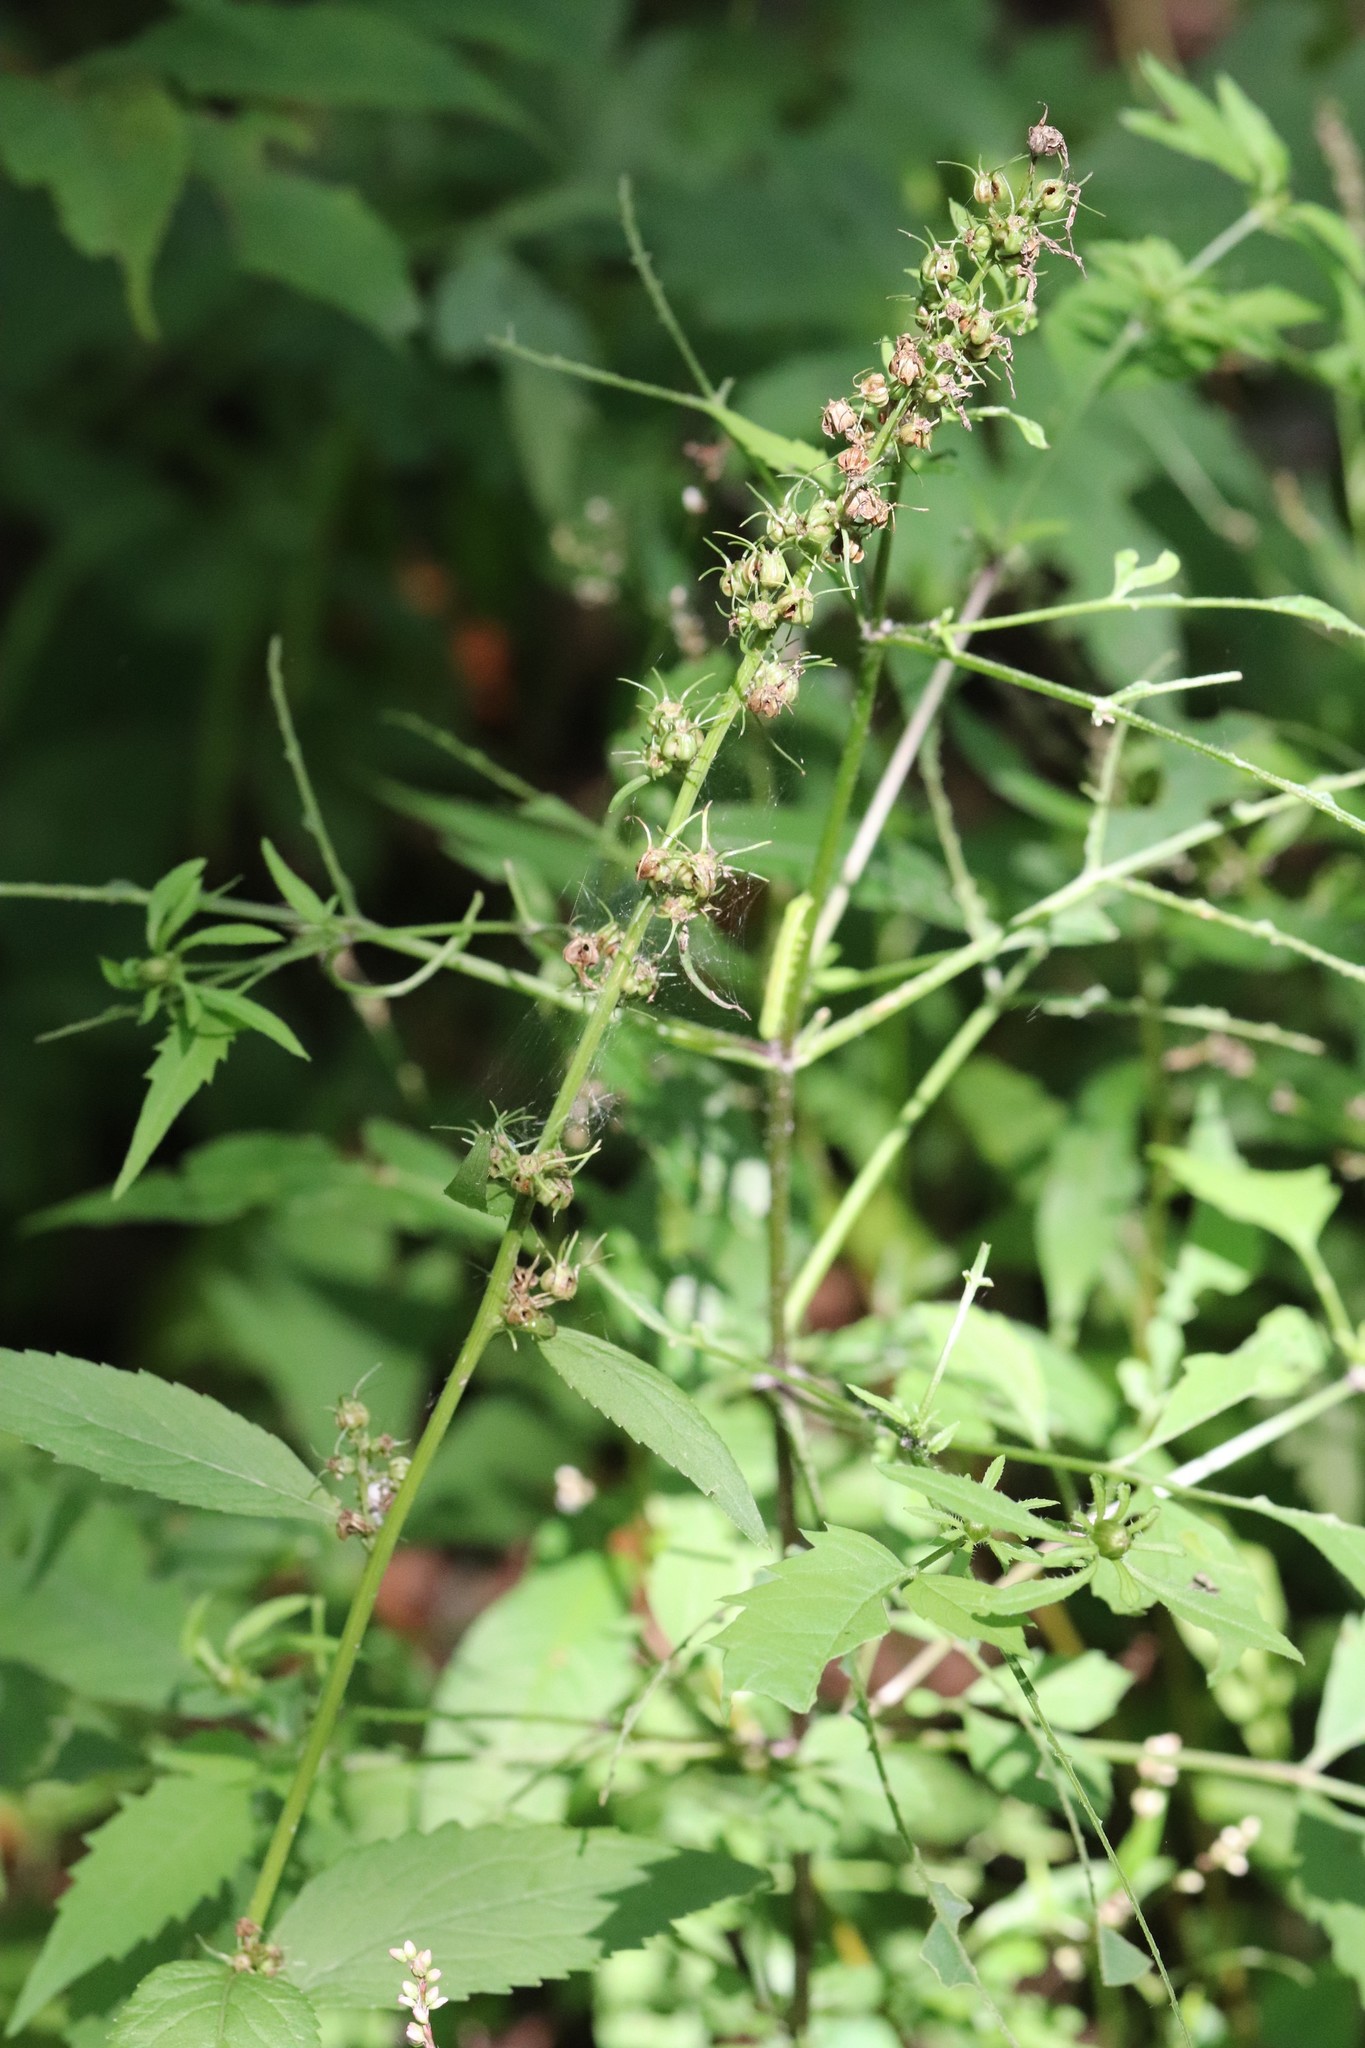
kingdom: Plantae
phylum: Tracheophyta
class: Magnoliopsida
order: Asterales
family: Campanulaceae
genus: Asyneuma
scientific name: Asyneuma japonicum
